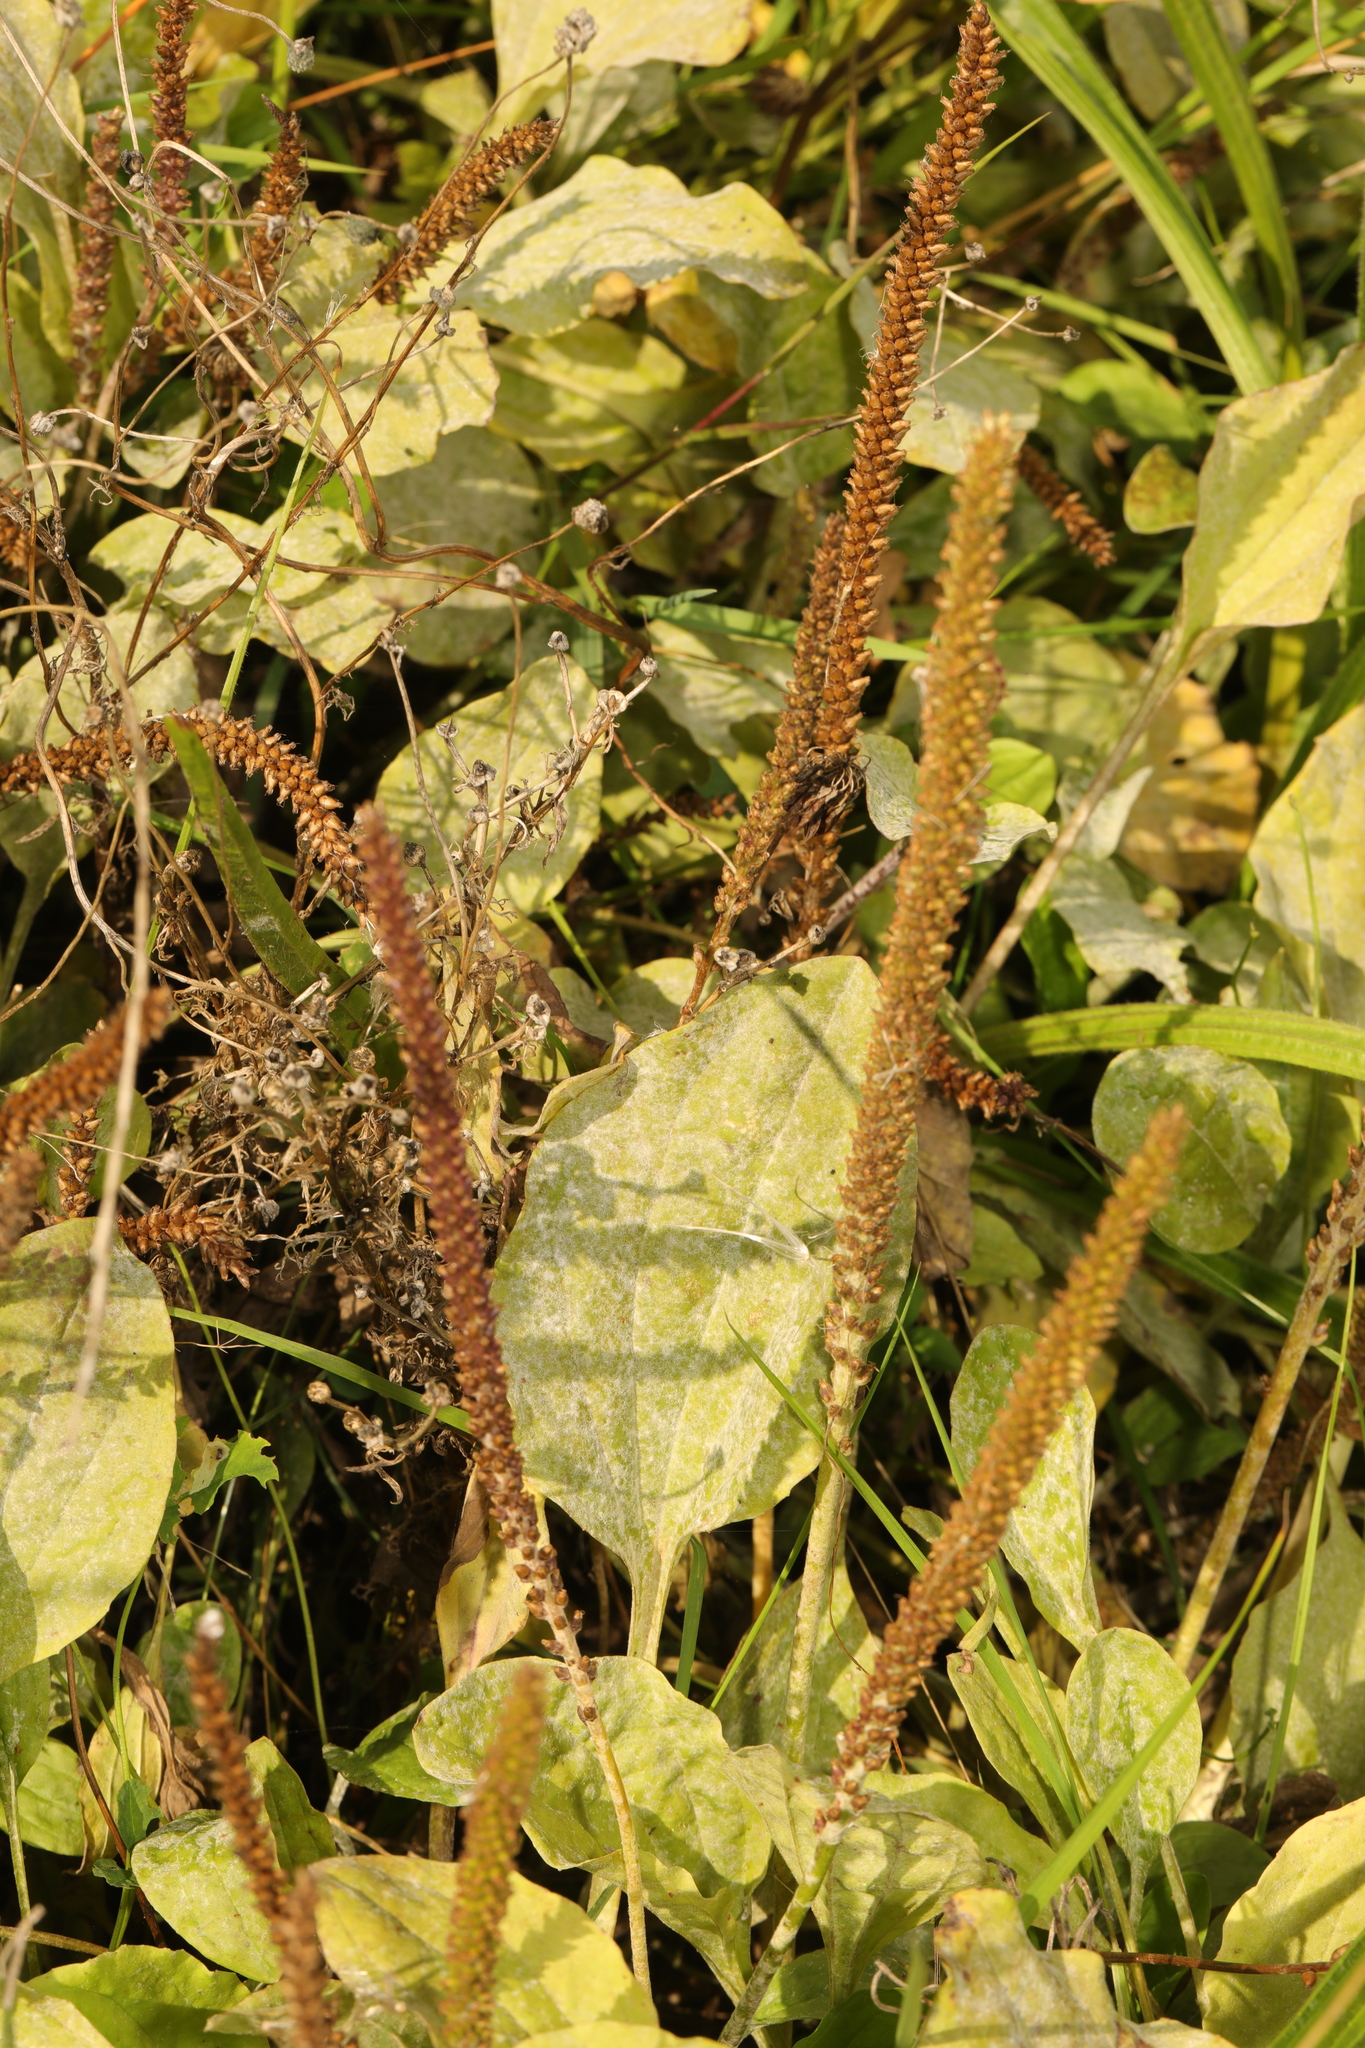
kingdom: Plantae
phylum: Tracheophyta
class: Magnoliopsida
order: Lamiales
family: Plantaginaceae
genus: Plantago
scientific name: Plantago major
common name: Common plantain
